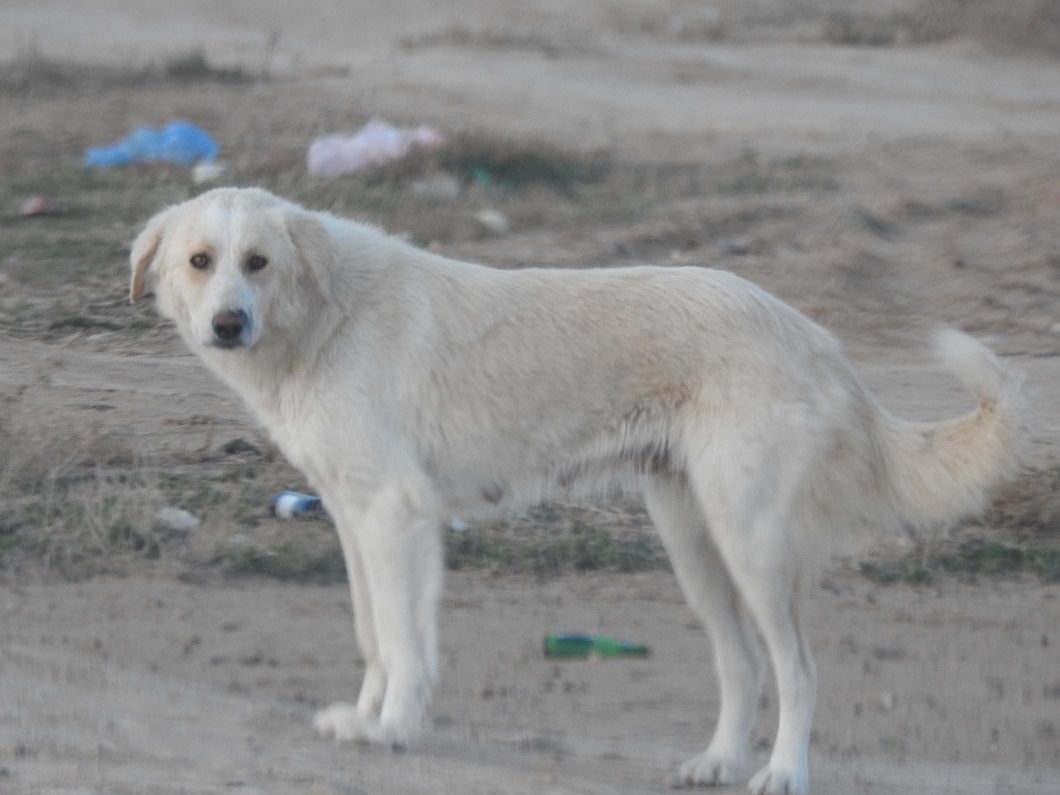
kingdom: Animalia
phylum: Chordata
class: Mammalia
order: Carnivora
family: Canidae
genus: Canis
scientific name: Canis lupus
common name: Gray wolf
